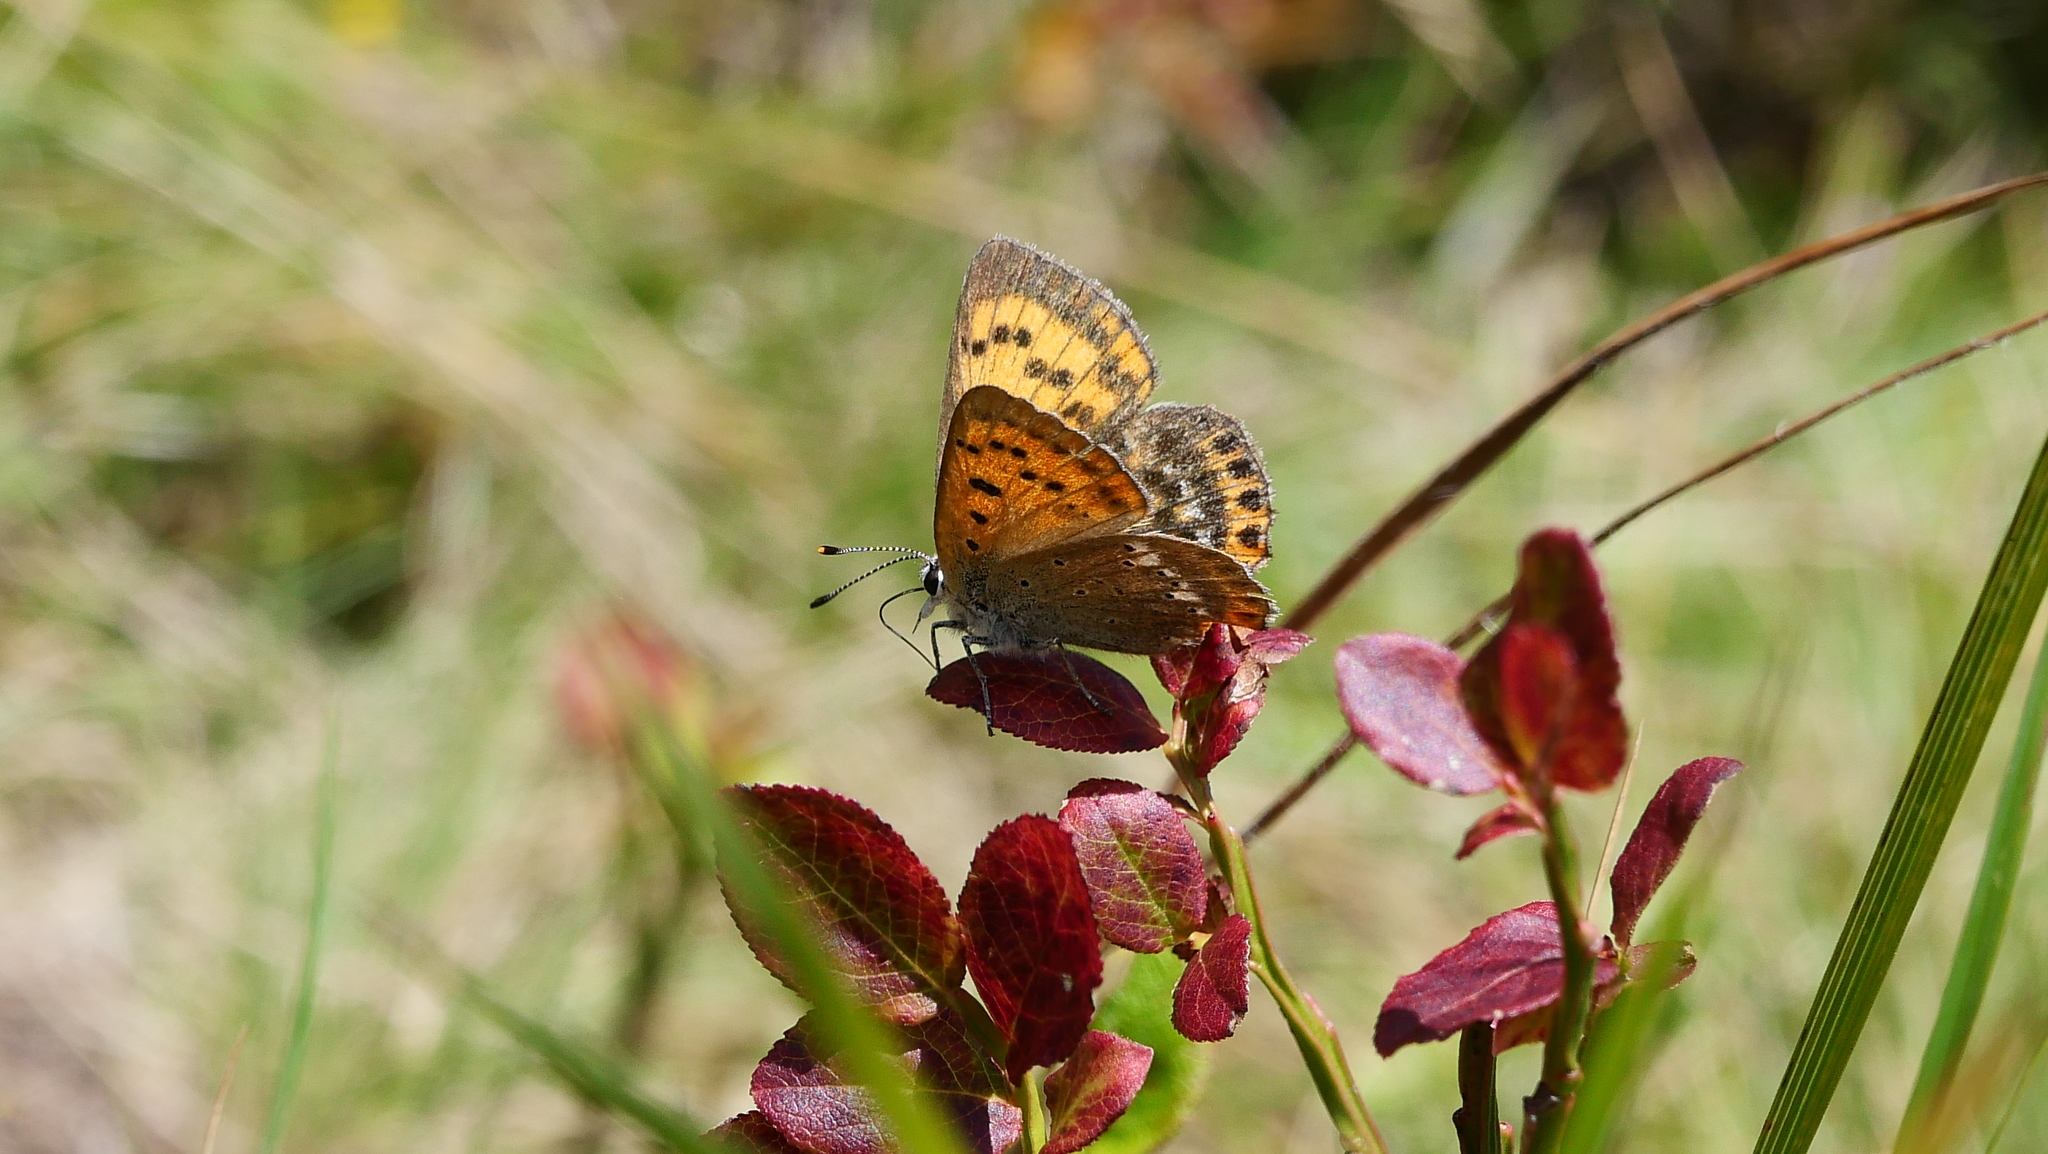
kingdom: Animalia
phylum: Arthropoda
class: Insecta
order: Lepidoptera
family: Lycaenidae
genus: Lycaena
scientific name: Lycaena virgaureae
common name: Scarce copper
